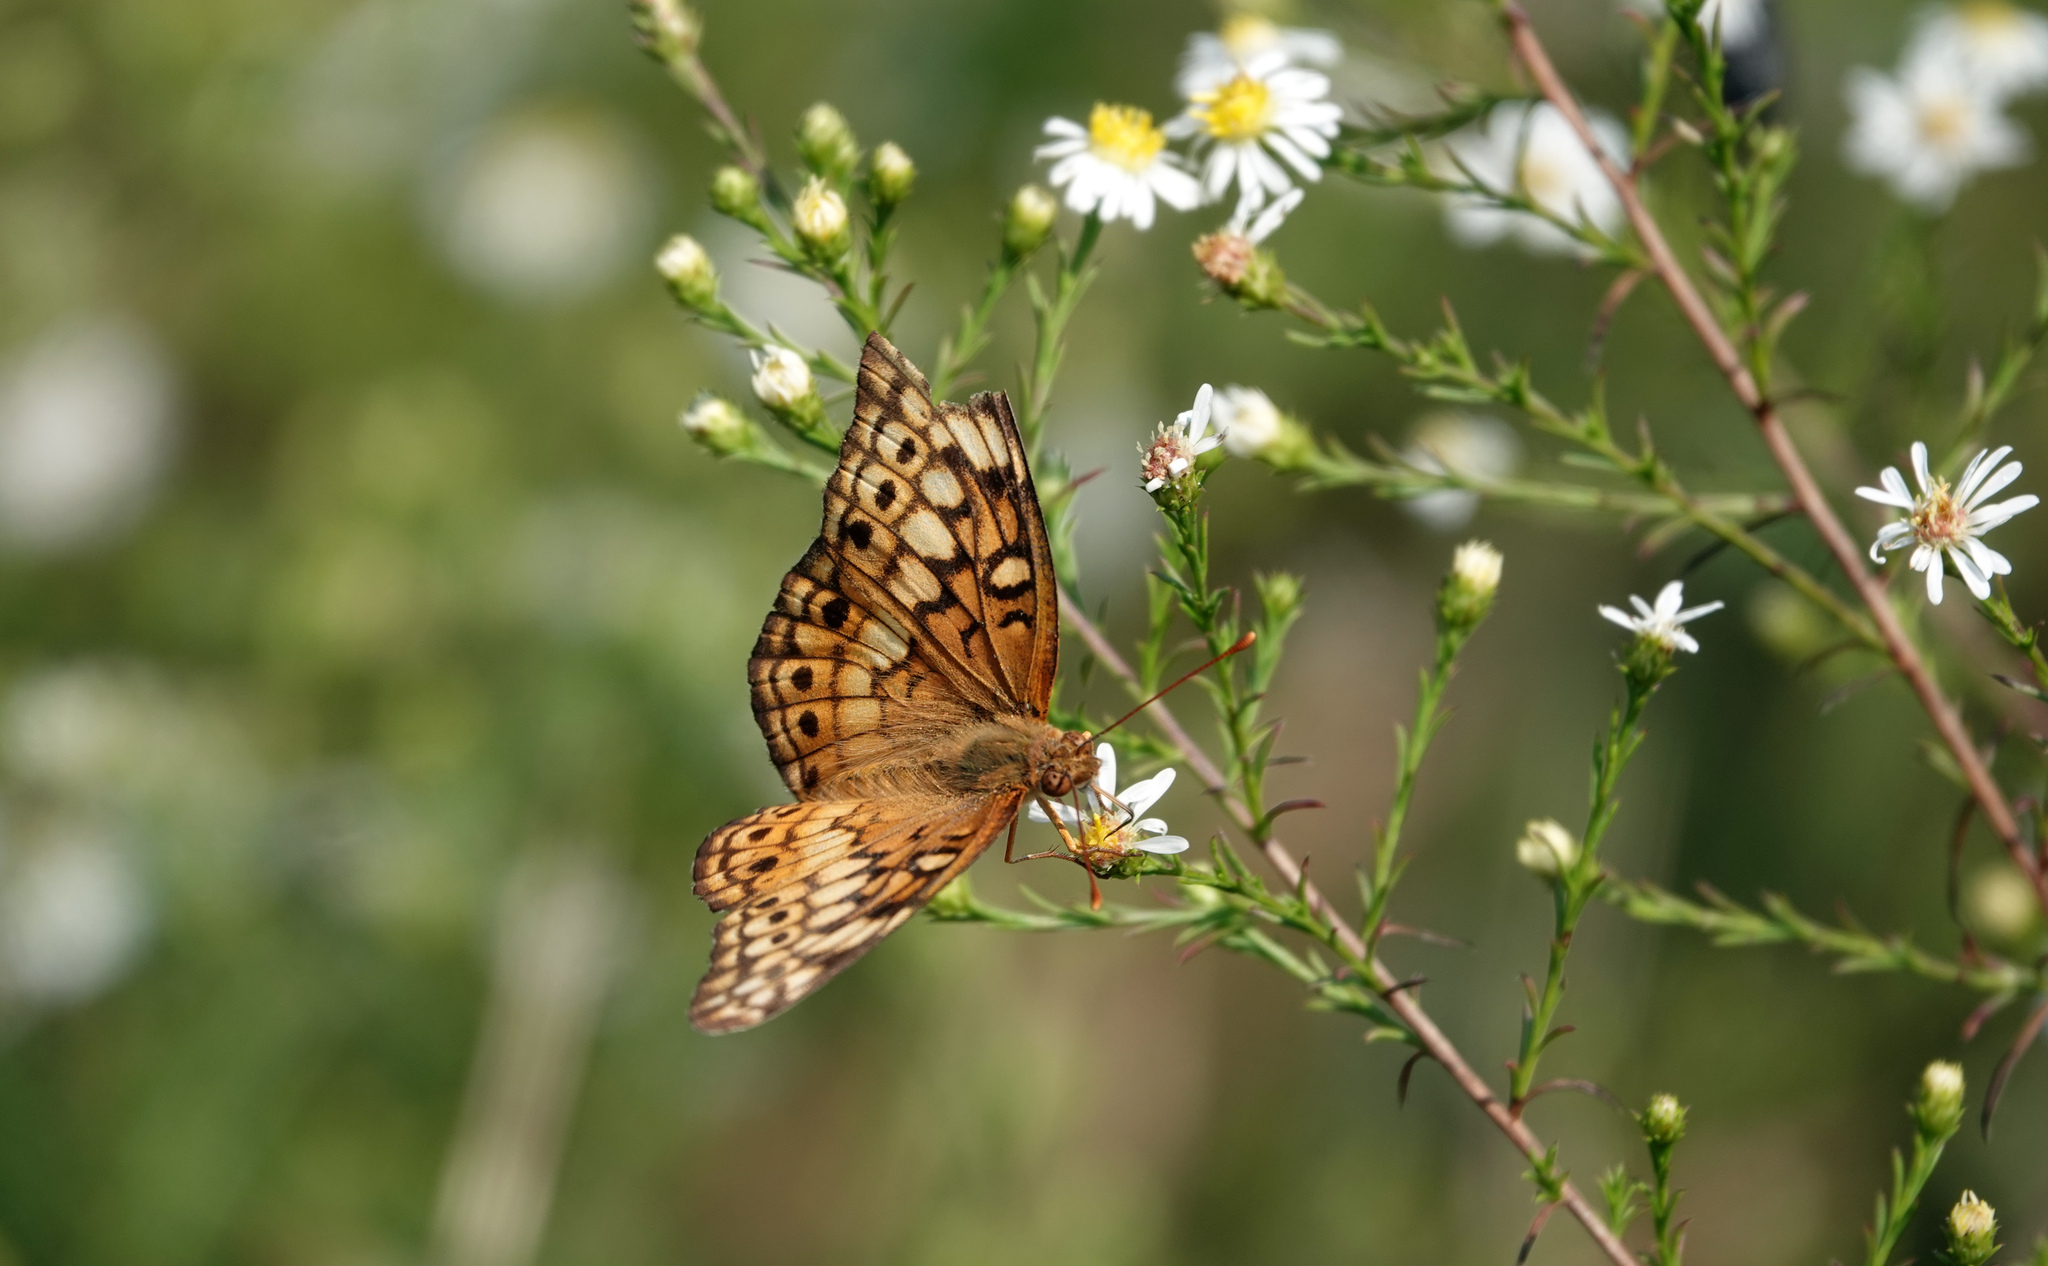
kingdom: Animalia
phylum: Arthropoda
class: Insecta
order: Lepidoptera
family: Nymphalidae
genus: Euptoieta
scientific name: Euptoieta claudia
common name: Variegated fritillary
